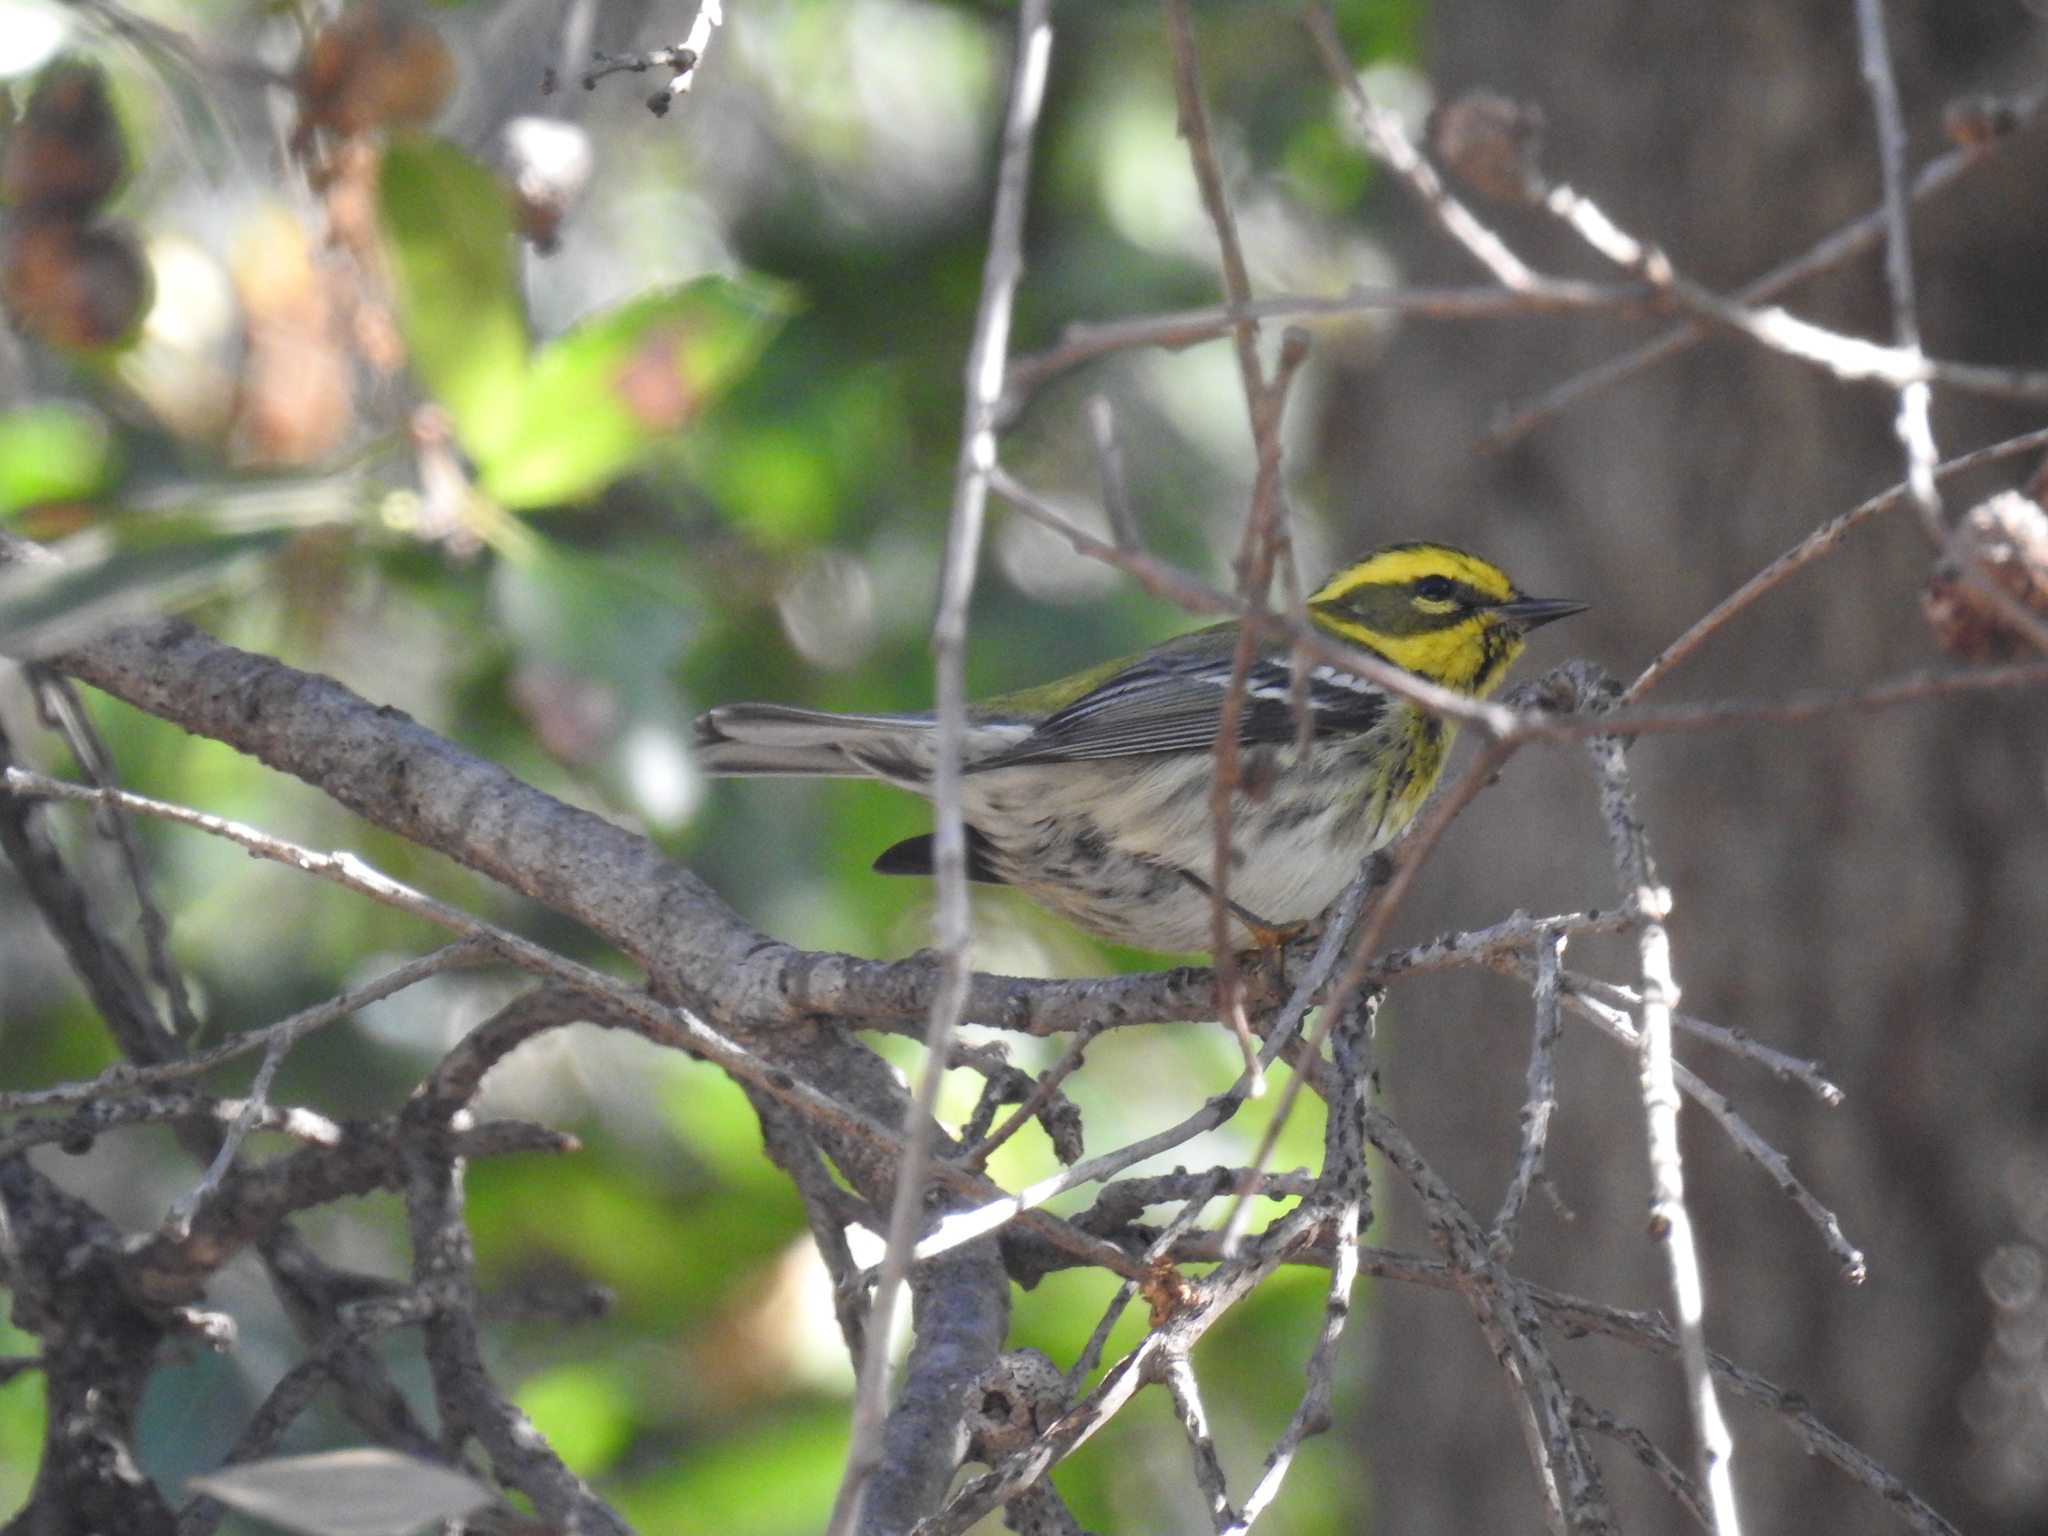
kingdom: Animalia
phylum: Chordata
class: Aves
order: Passeriformes
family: Parulidae
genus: Setophaga
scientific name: Setophaga townsendi
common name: Townsend's warbler
